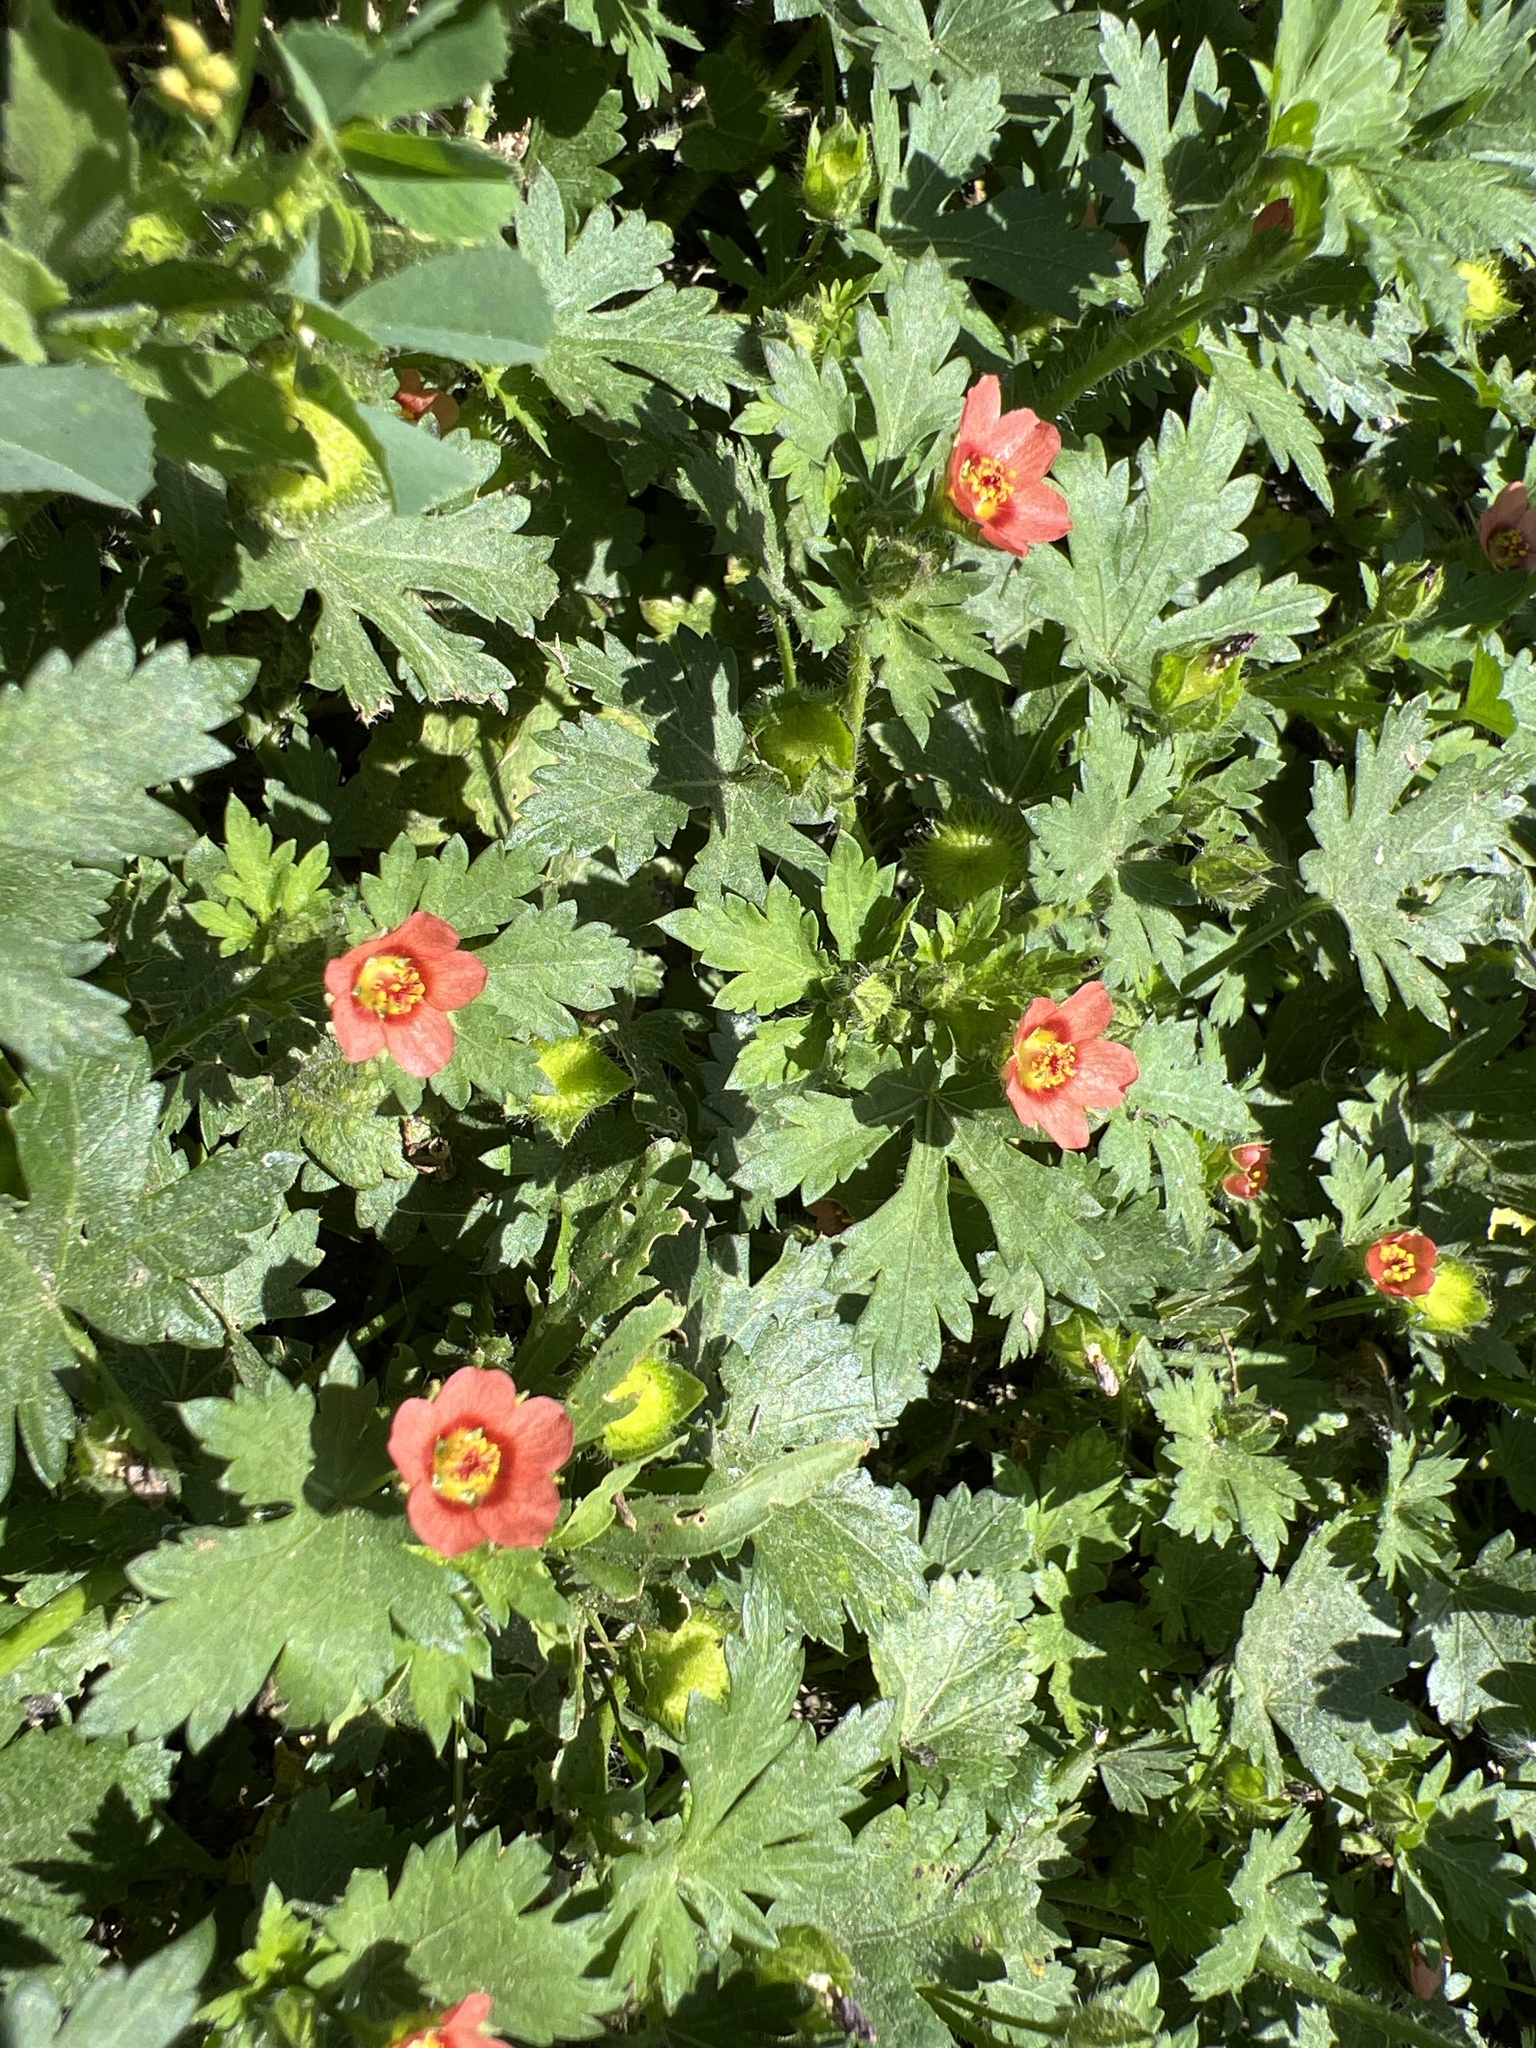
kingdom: Plantae
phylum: Tracheophyta
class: Magnoliopsida
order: Malvales
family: Malvaceae
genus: Modiola
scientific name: Modiola caroliniana
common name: Carolina bristlemallow
